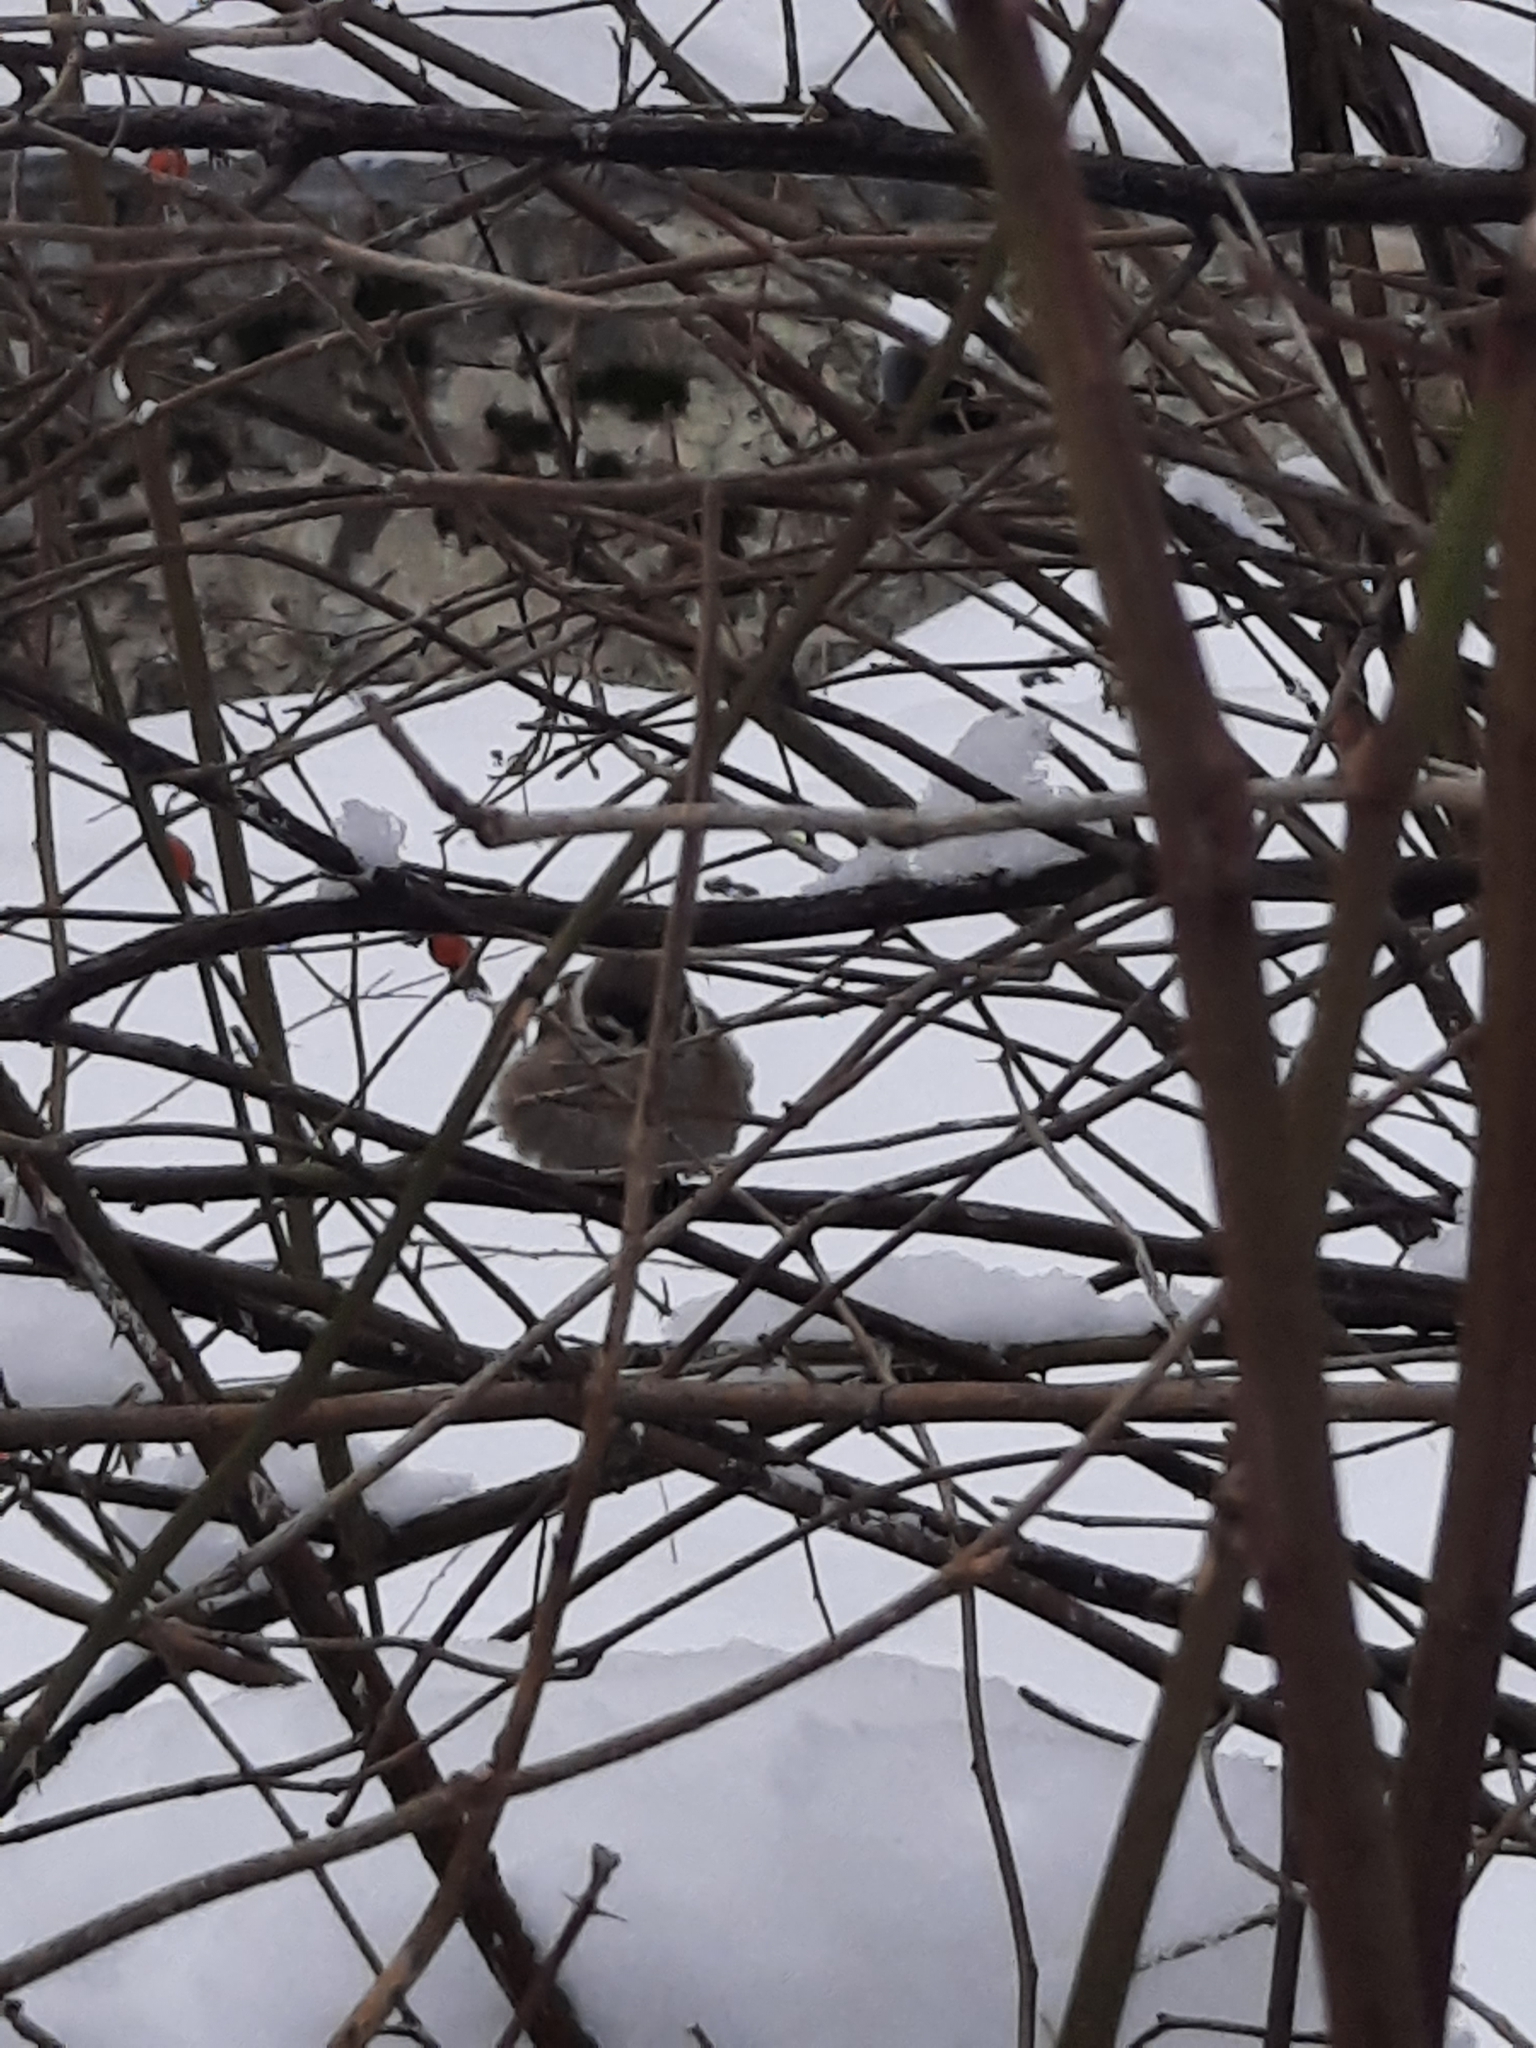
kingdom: Animalia
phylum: Chordata
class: Aves
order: Passeriformes
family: Passeridae
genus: Passer
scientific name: Passer montanus
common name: Eurasian tree sparrow
